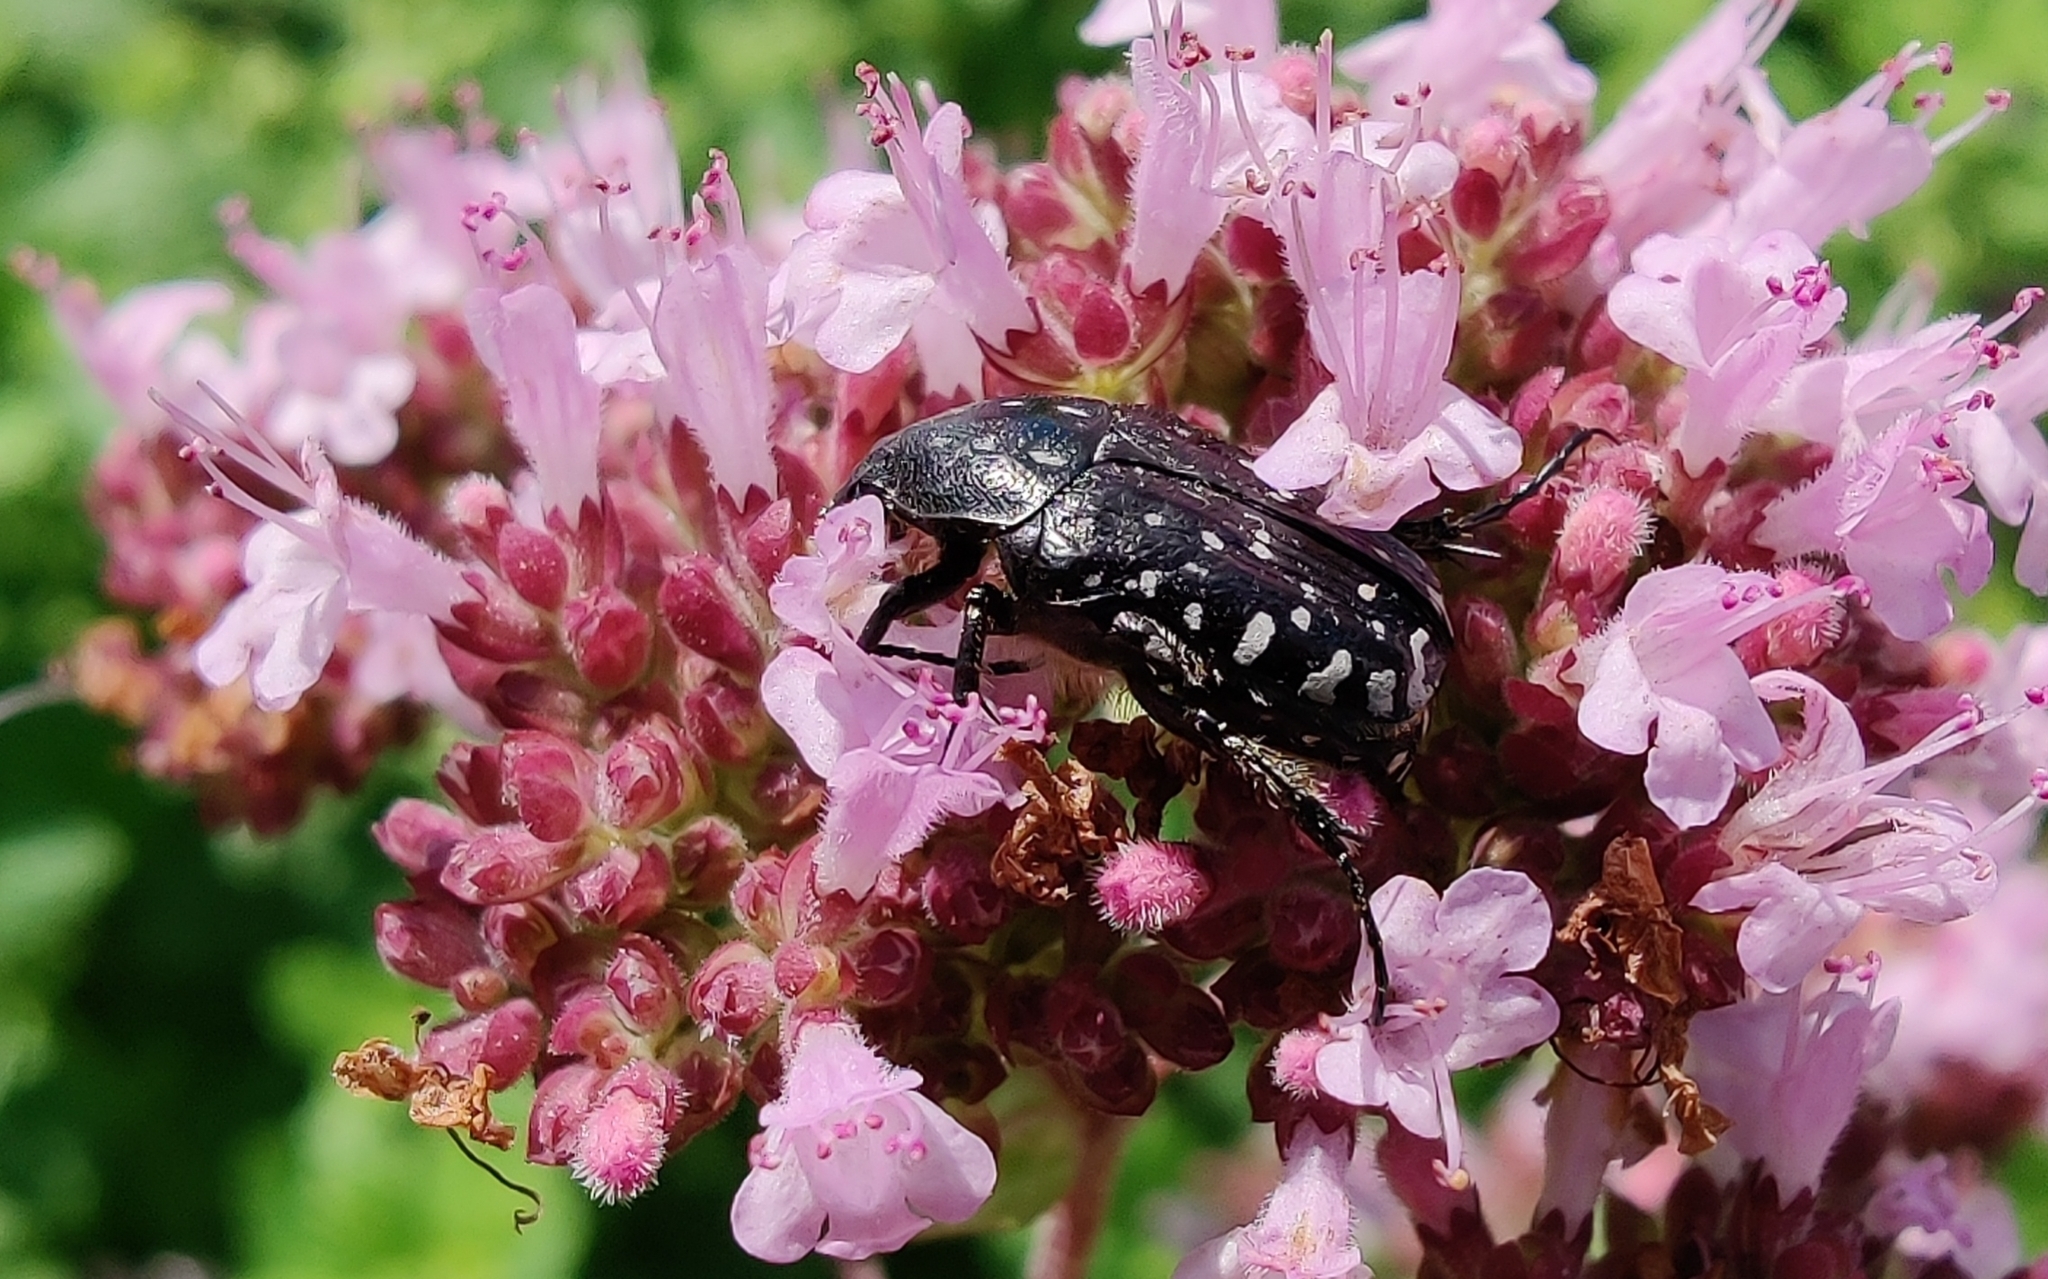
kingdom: Animalia
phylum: Arthropoda
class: Insecta
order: Coleoptera
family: Scarabaeidae
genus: Oxythyrea
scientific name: Oxythyrea funesta
